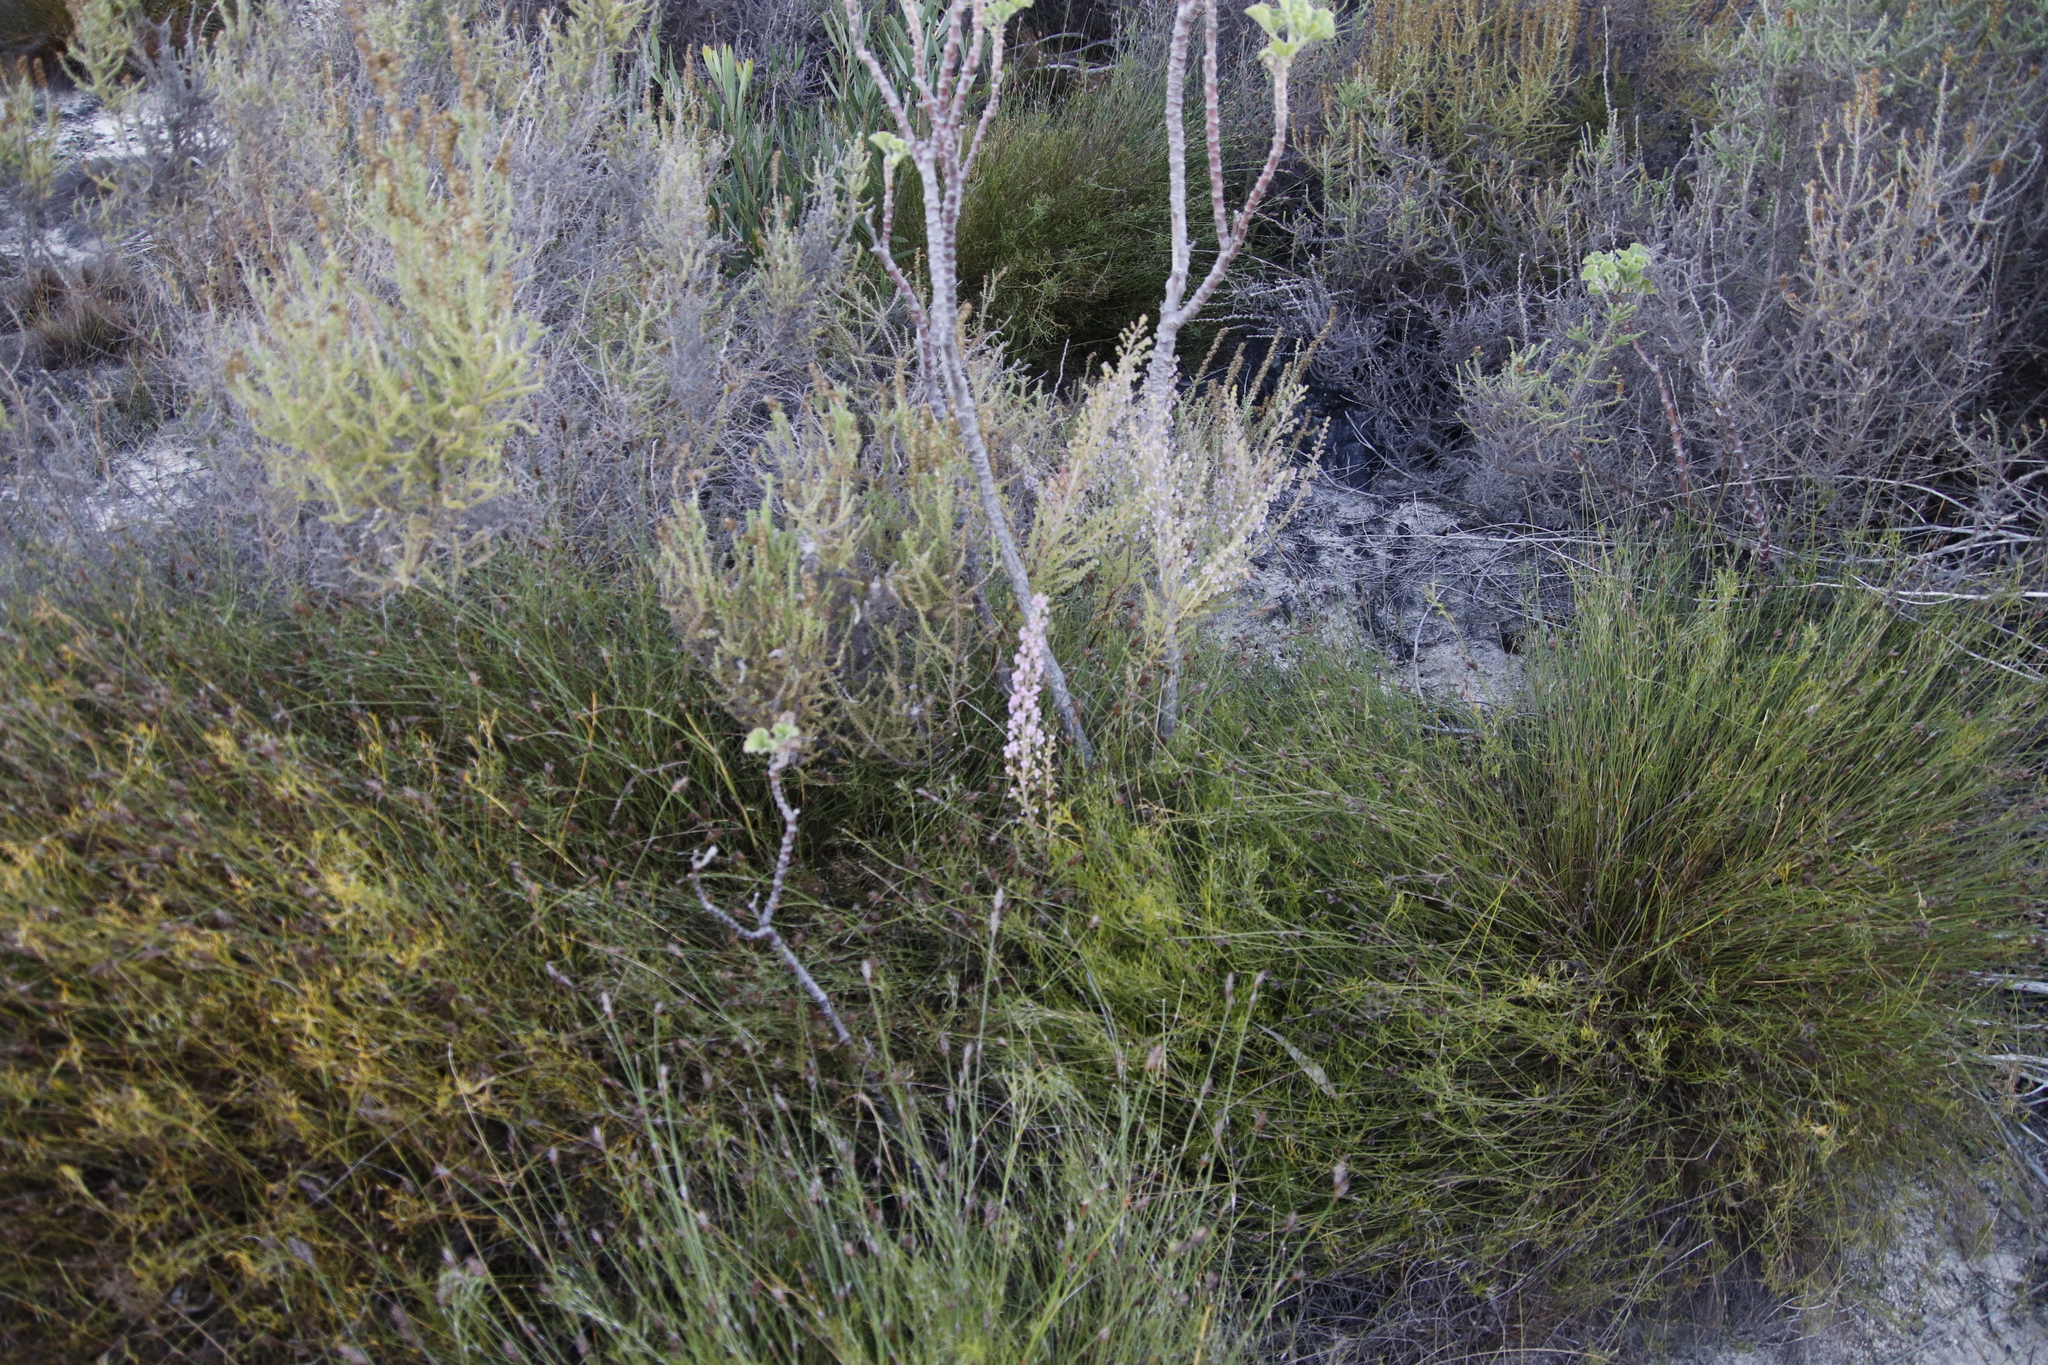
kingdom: Plantae
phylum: Tracheophyta
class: Magnoliopsida
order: Ericales
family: Ericaceae
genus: Erica
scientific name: Erica hirtiflora
